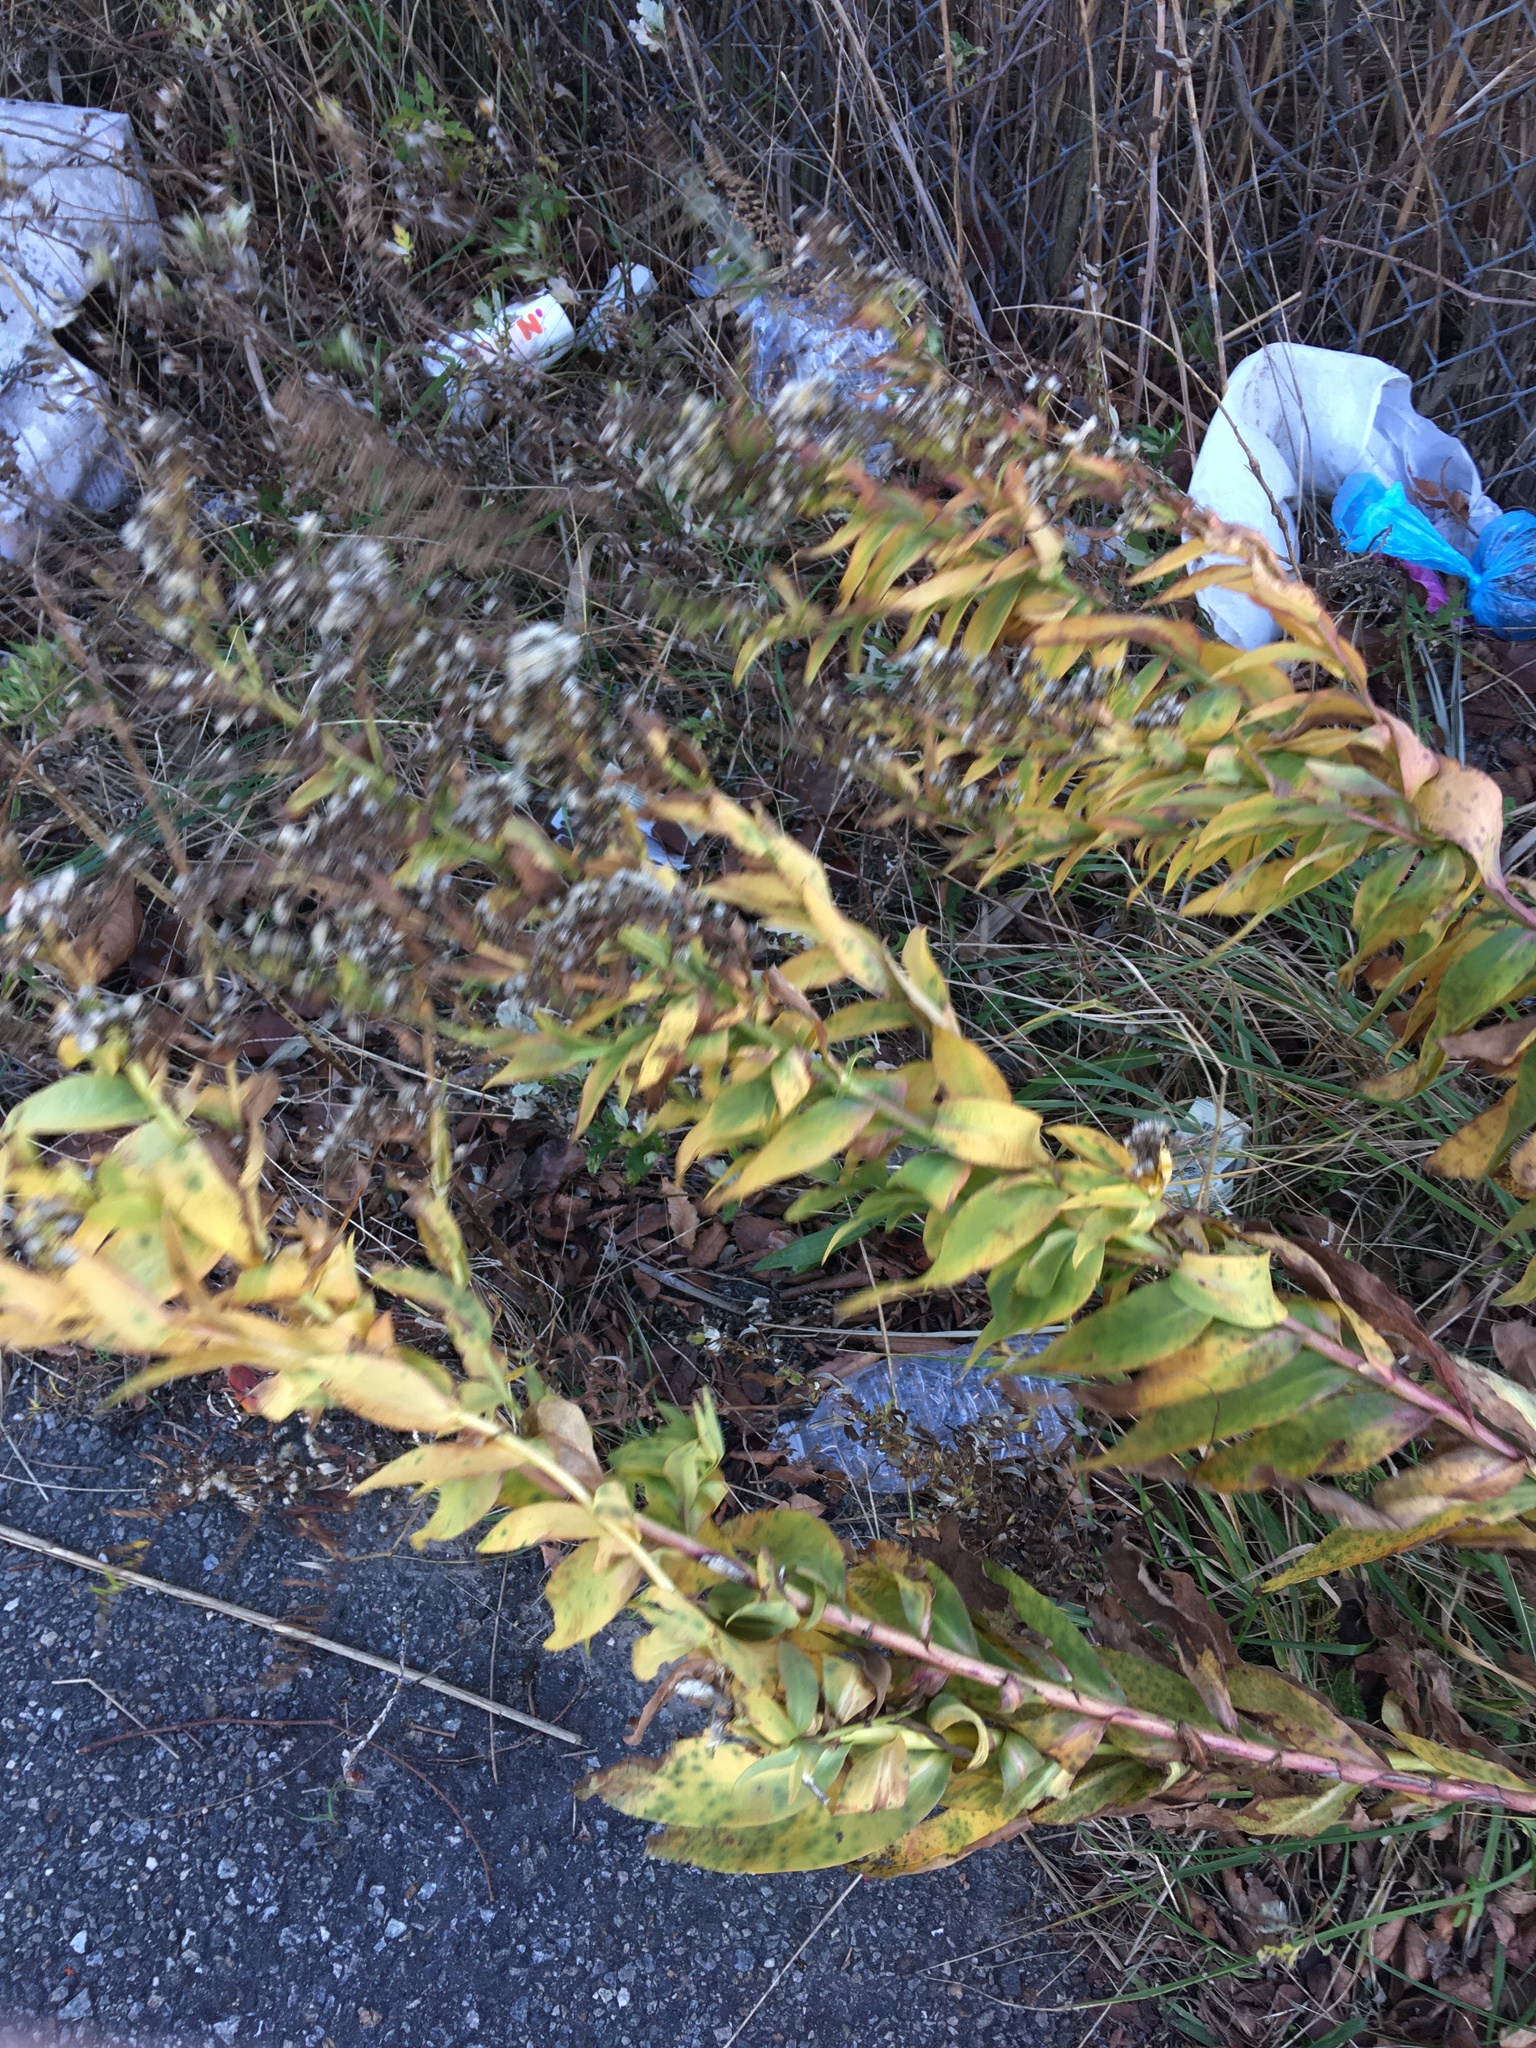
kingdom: Plantae
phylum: Tracheophyta
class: Magnoliopsida
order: Asterales
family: Asteraceae
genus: Solidago
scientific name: Solidago sempervirens
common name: Salt-marsh goldenrod
